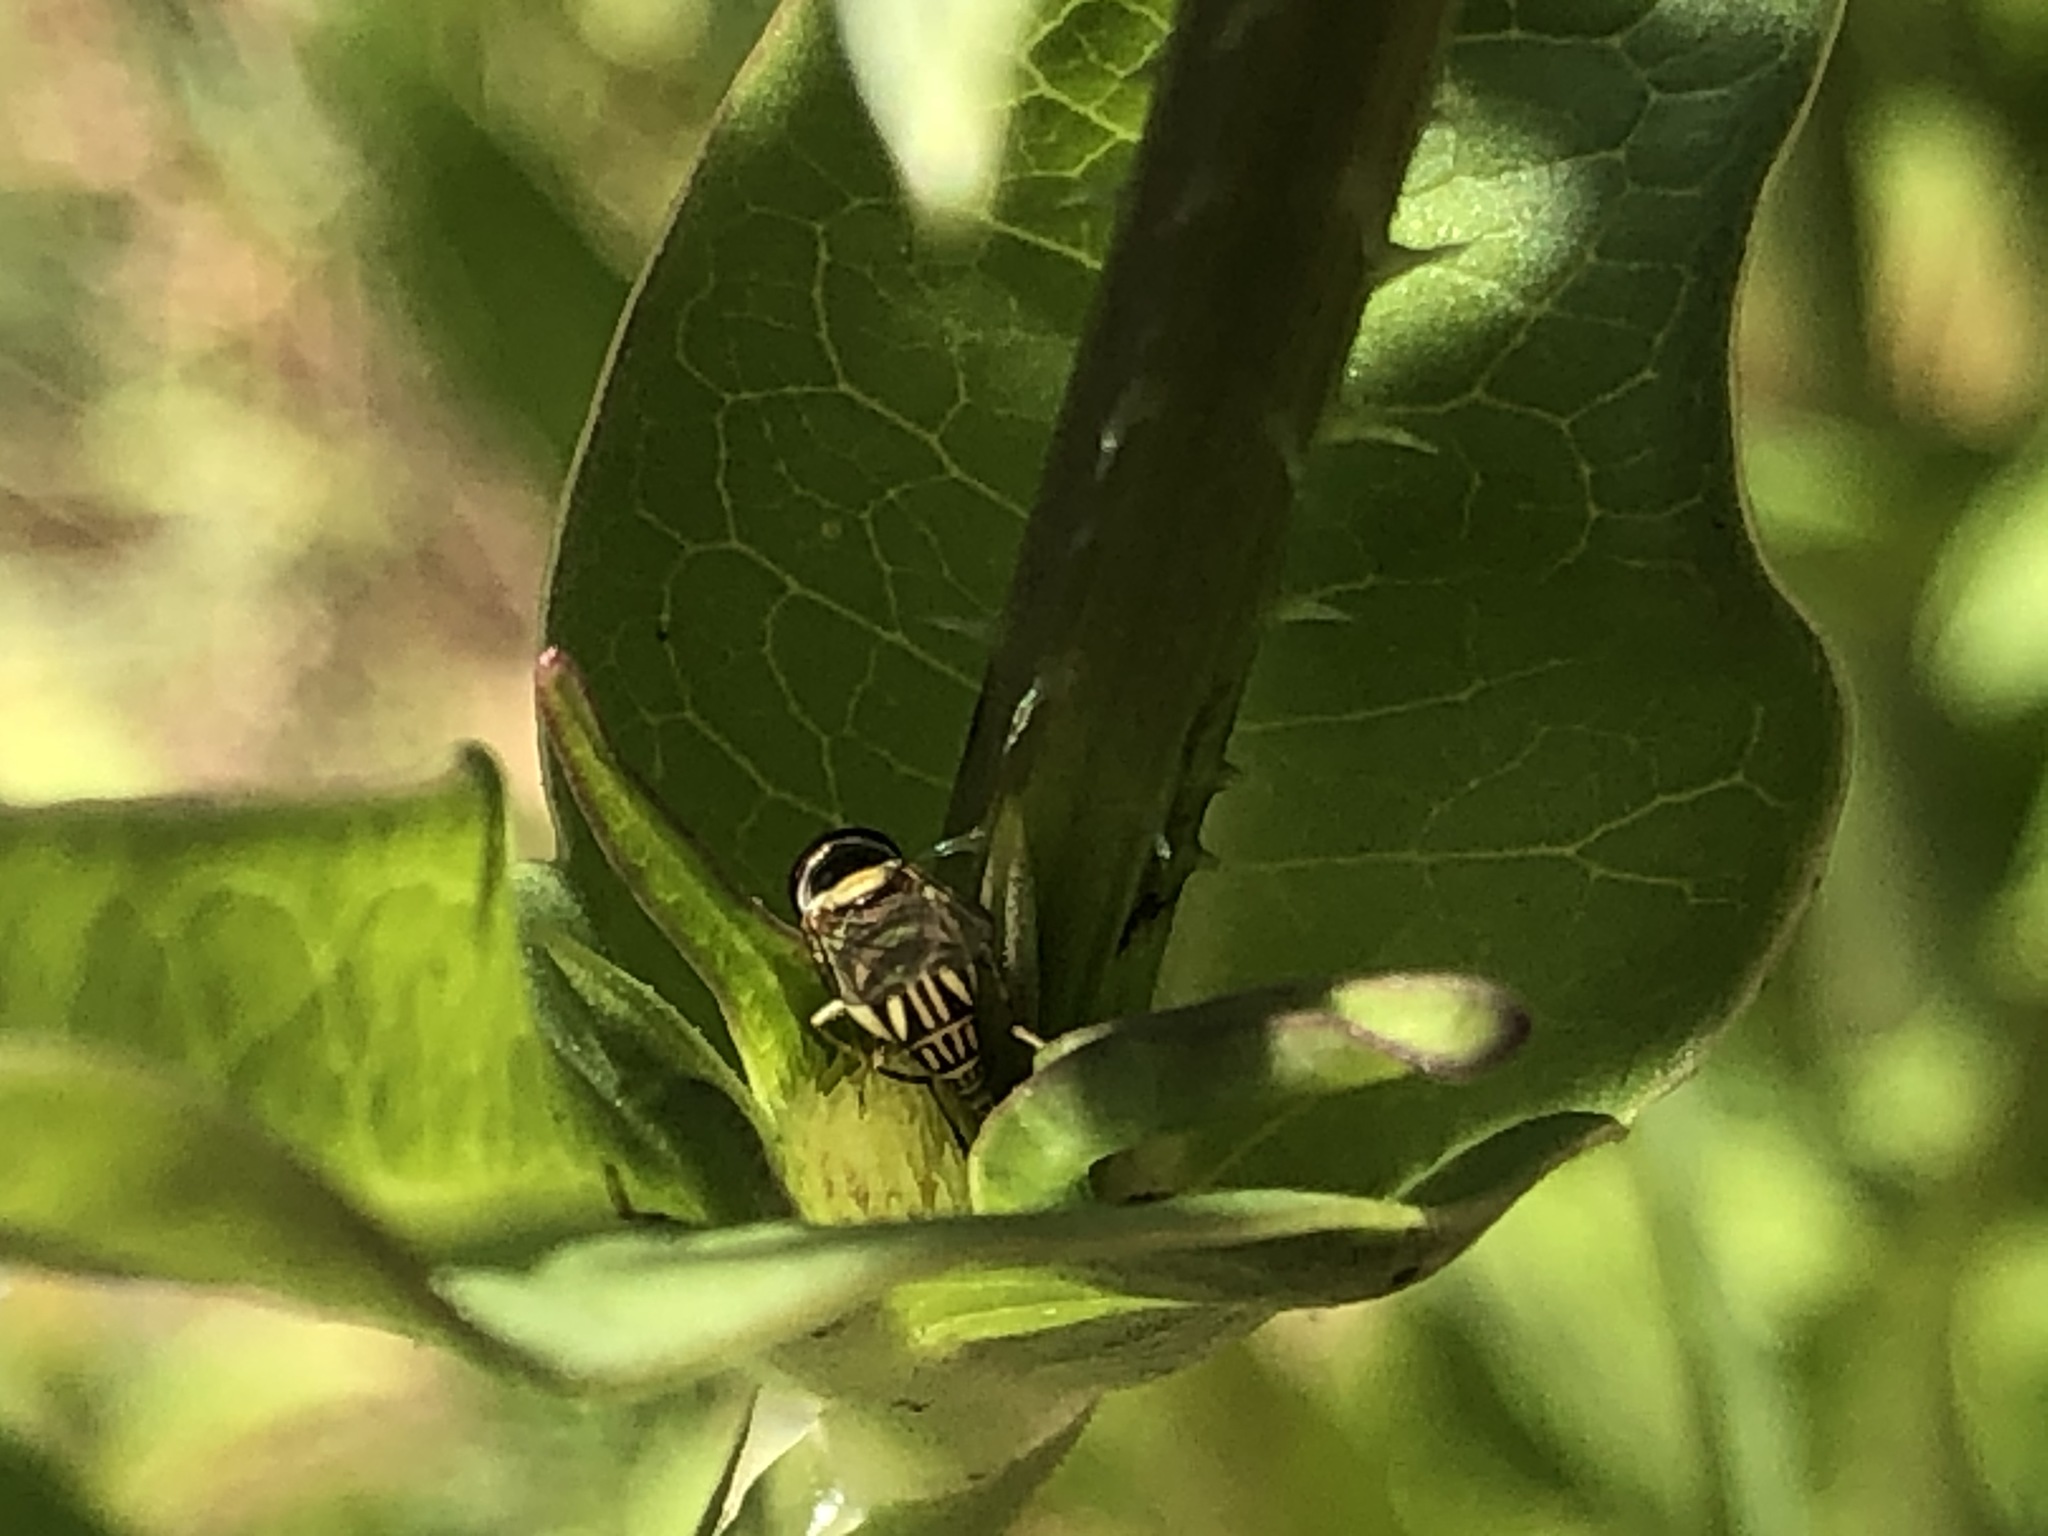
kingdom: Animalia
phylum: Arthropoda
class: Insecta
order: Diptera
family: Syrphidae
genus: Allograpta
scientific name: Allograpta obliqua
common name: Common oblique syrphid
